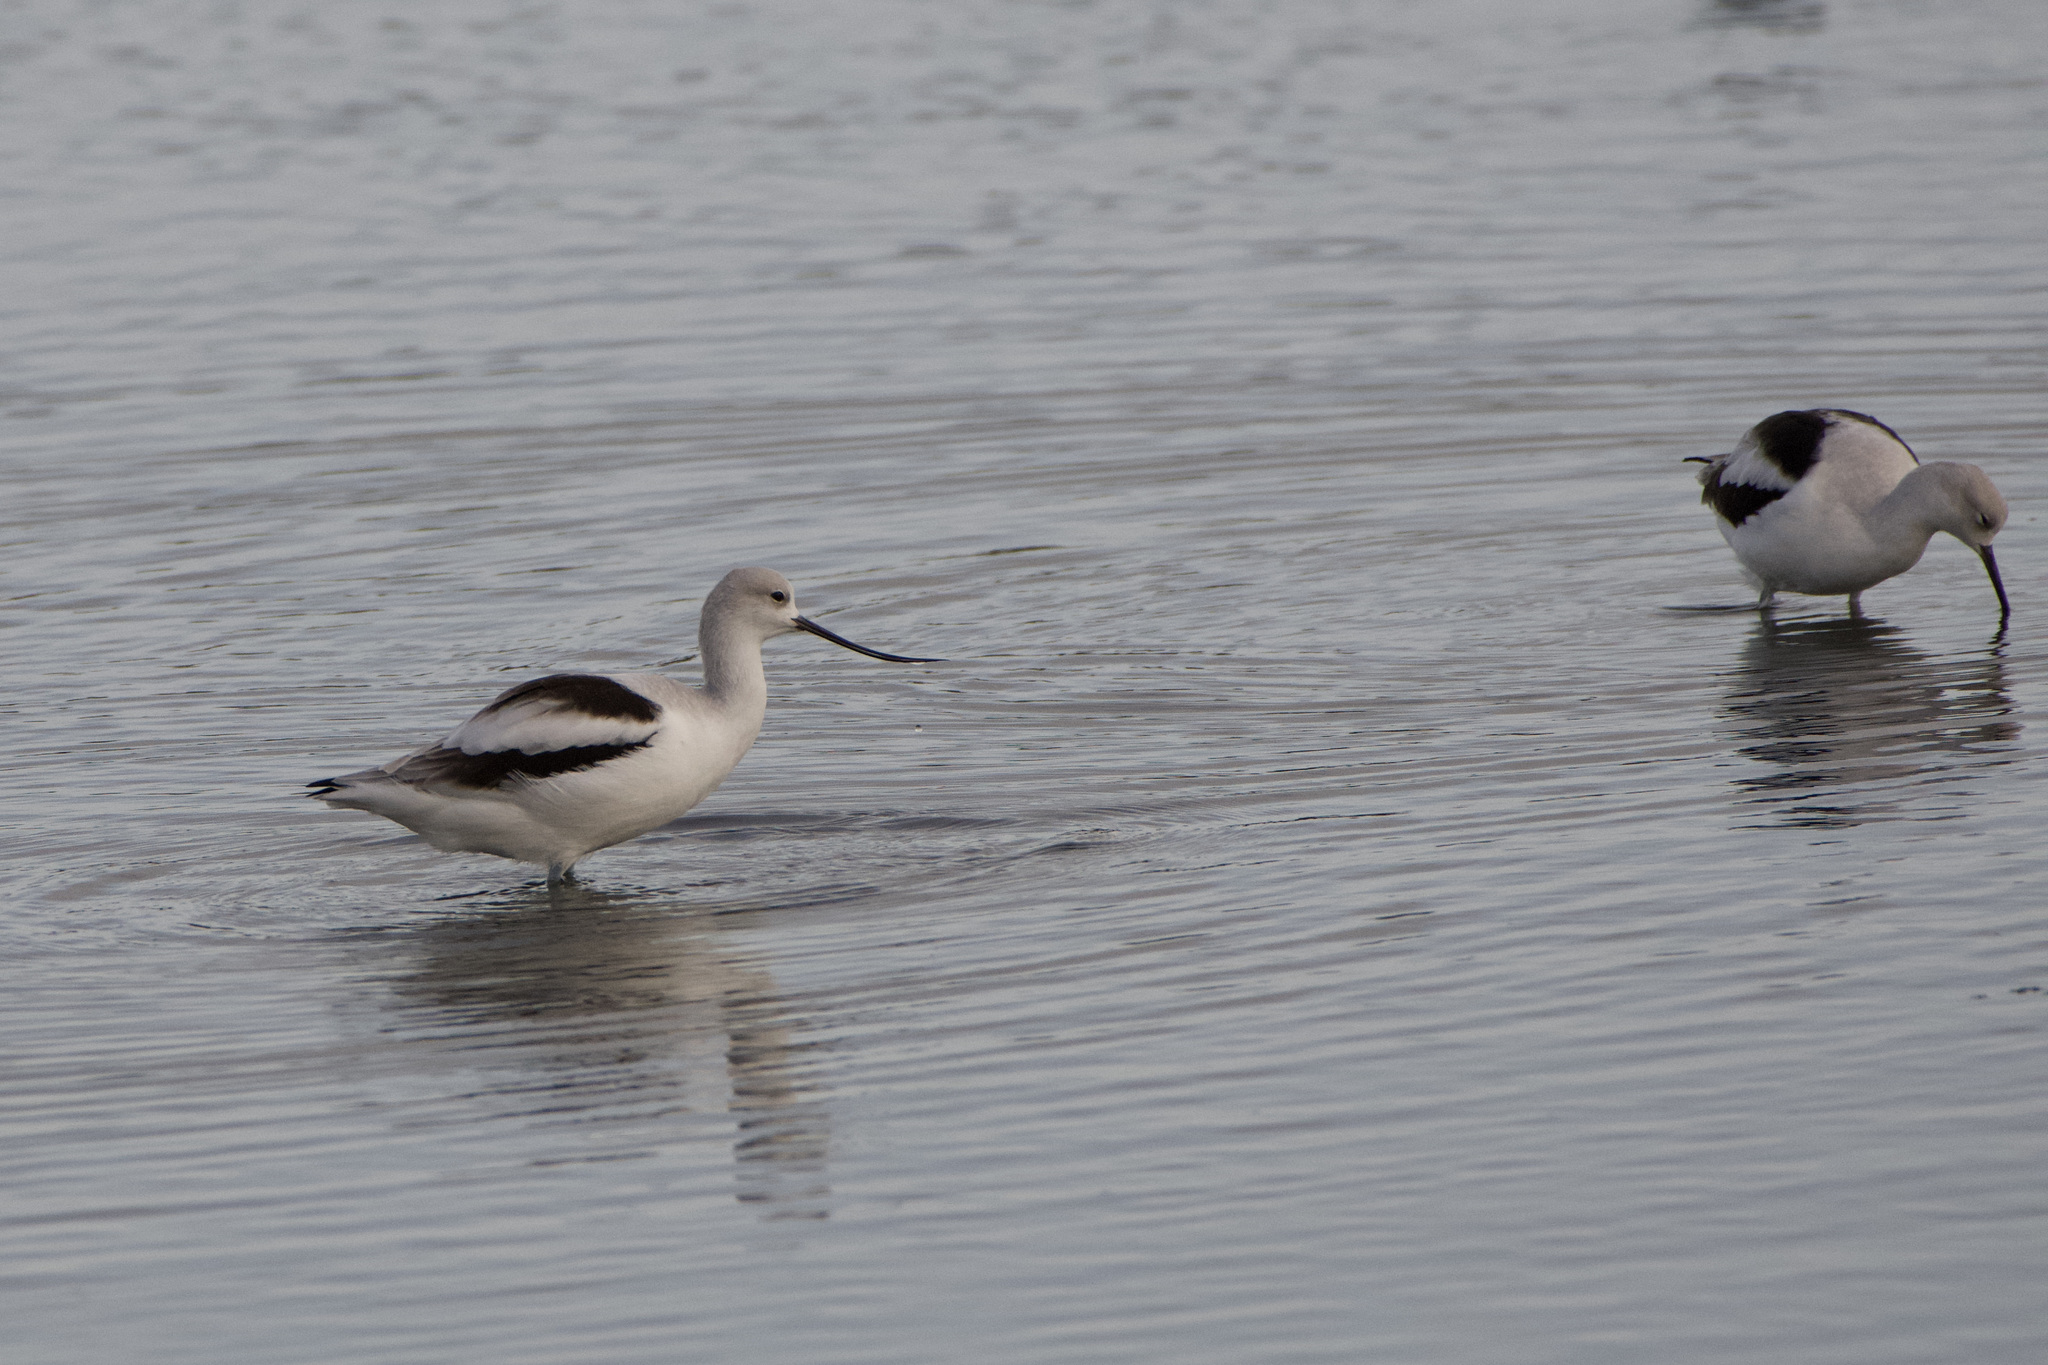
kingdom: Animalia
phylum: Chordata
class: Aves
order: Charadriiformes
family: Recurvirostridae
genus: Recurvirostra
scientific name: Recurvirostra americana
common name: American avocet
